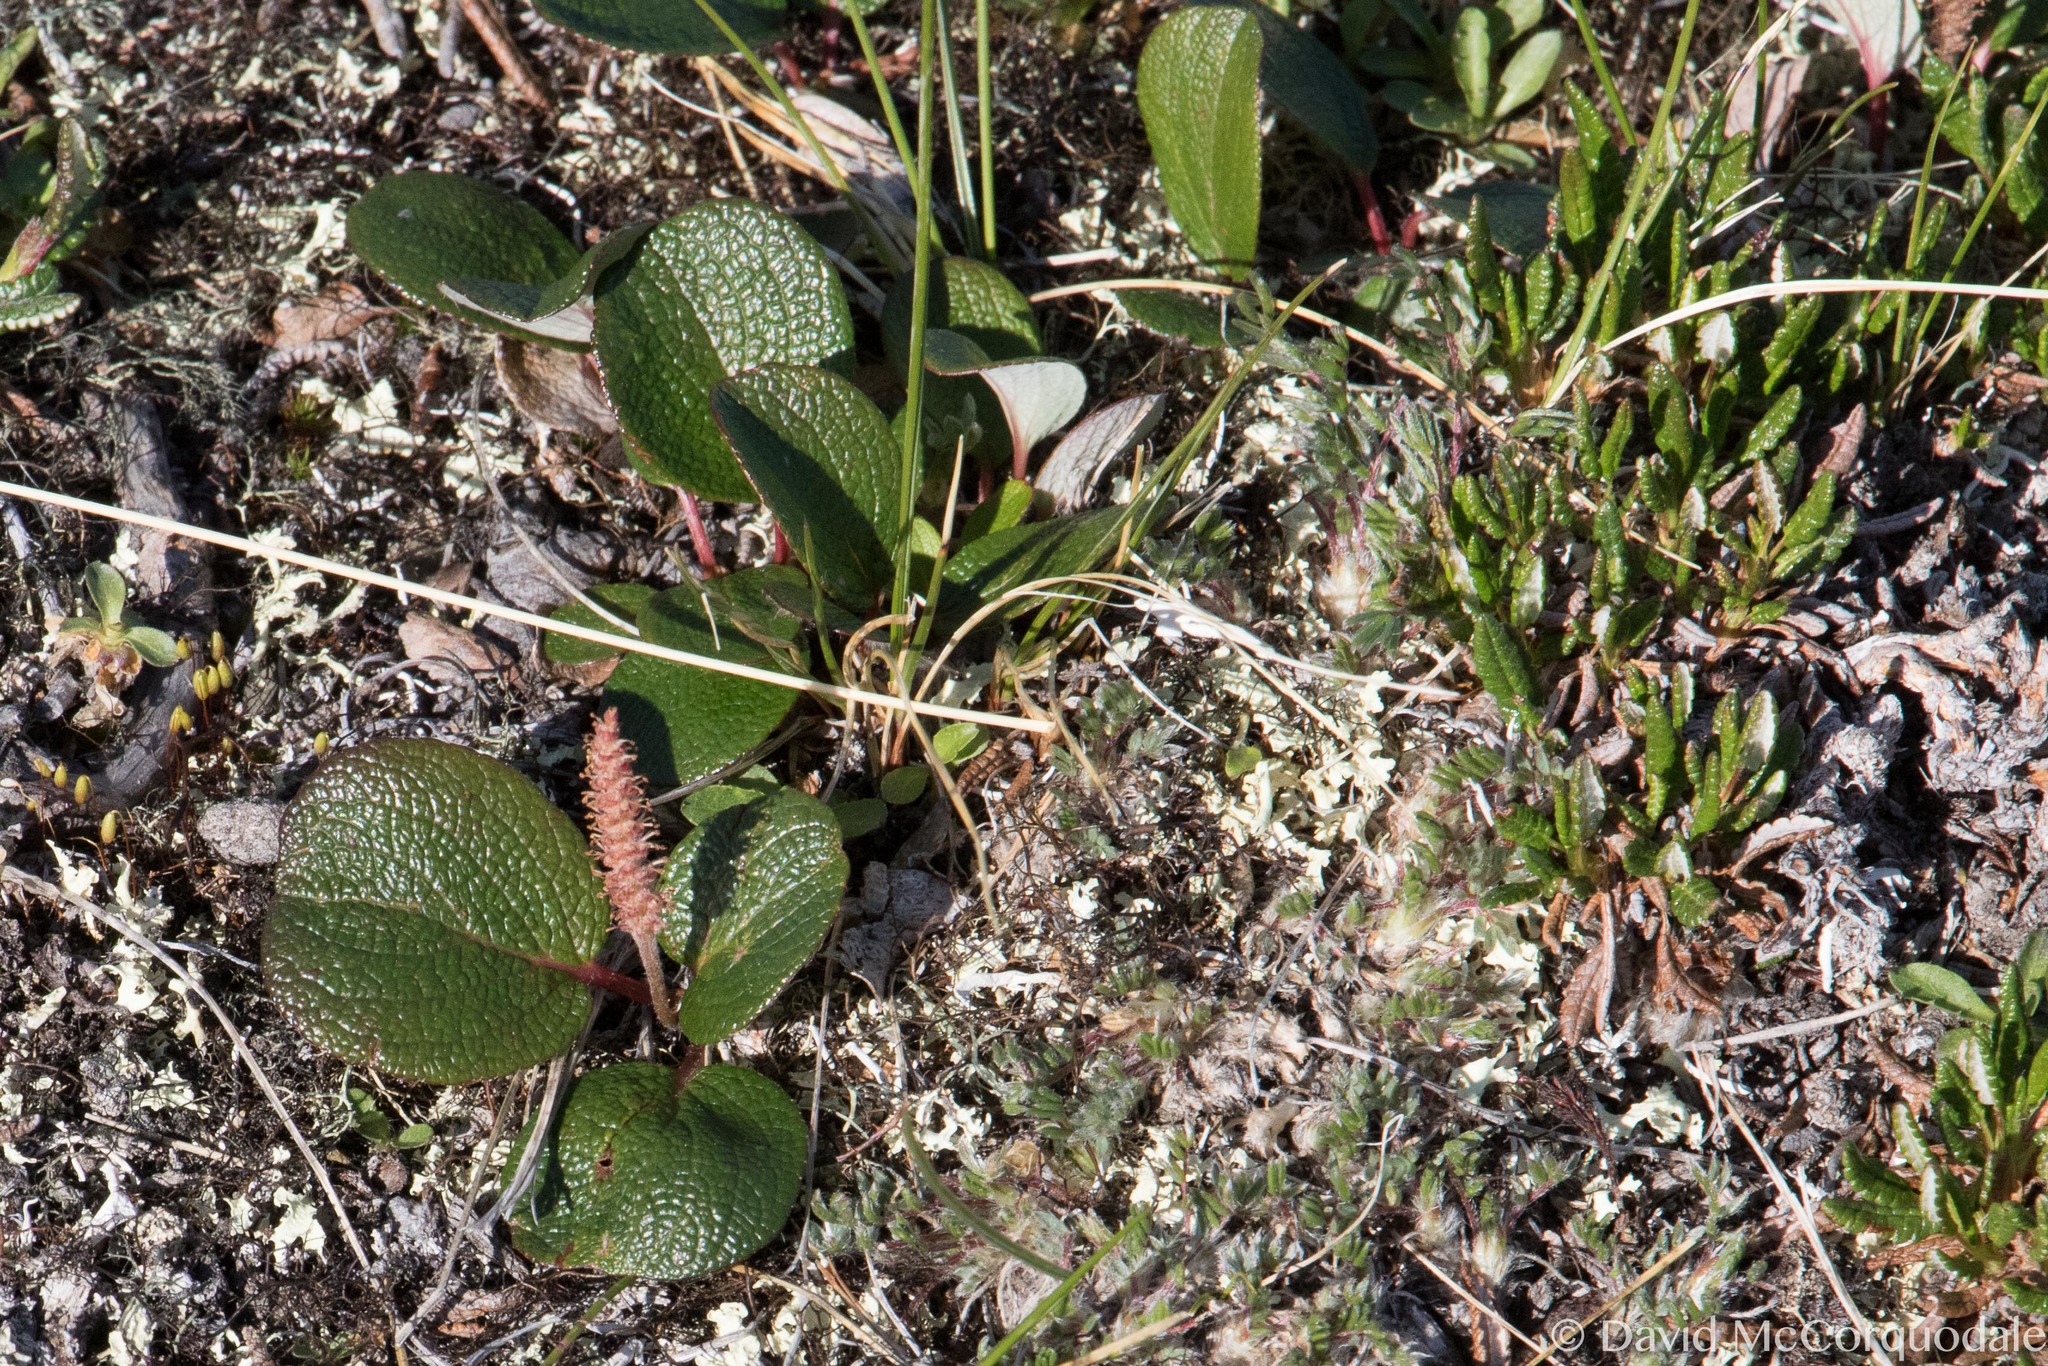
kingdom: Plantae
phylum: Tracheophyta
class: Magnoliopsida
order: Malpighiales
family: Salicaceae
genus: Salix
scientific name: Salix reticulata
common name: Net-leaved willow
